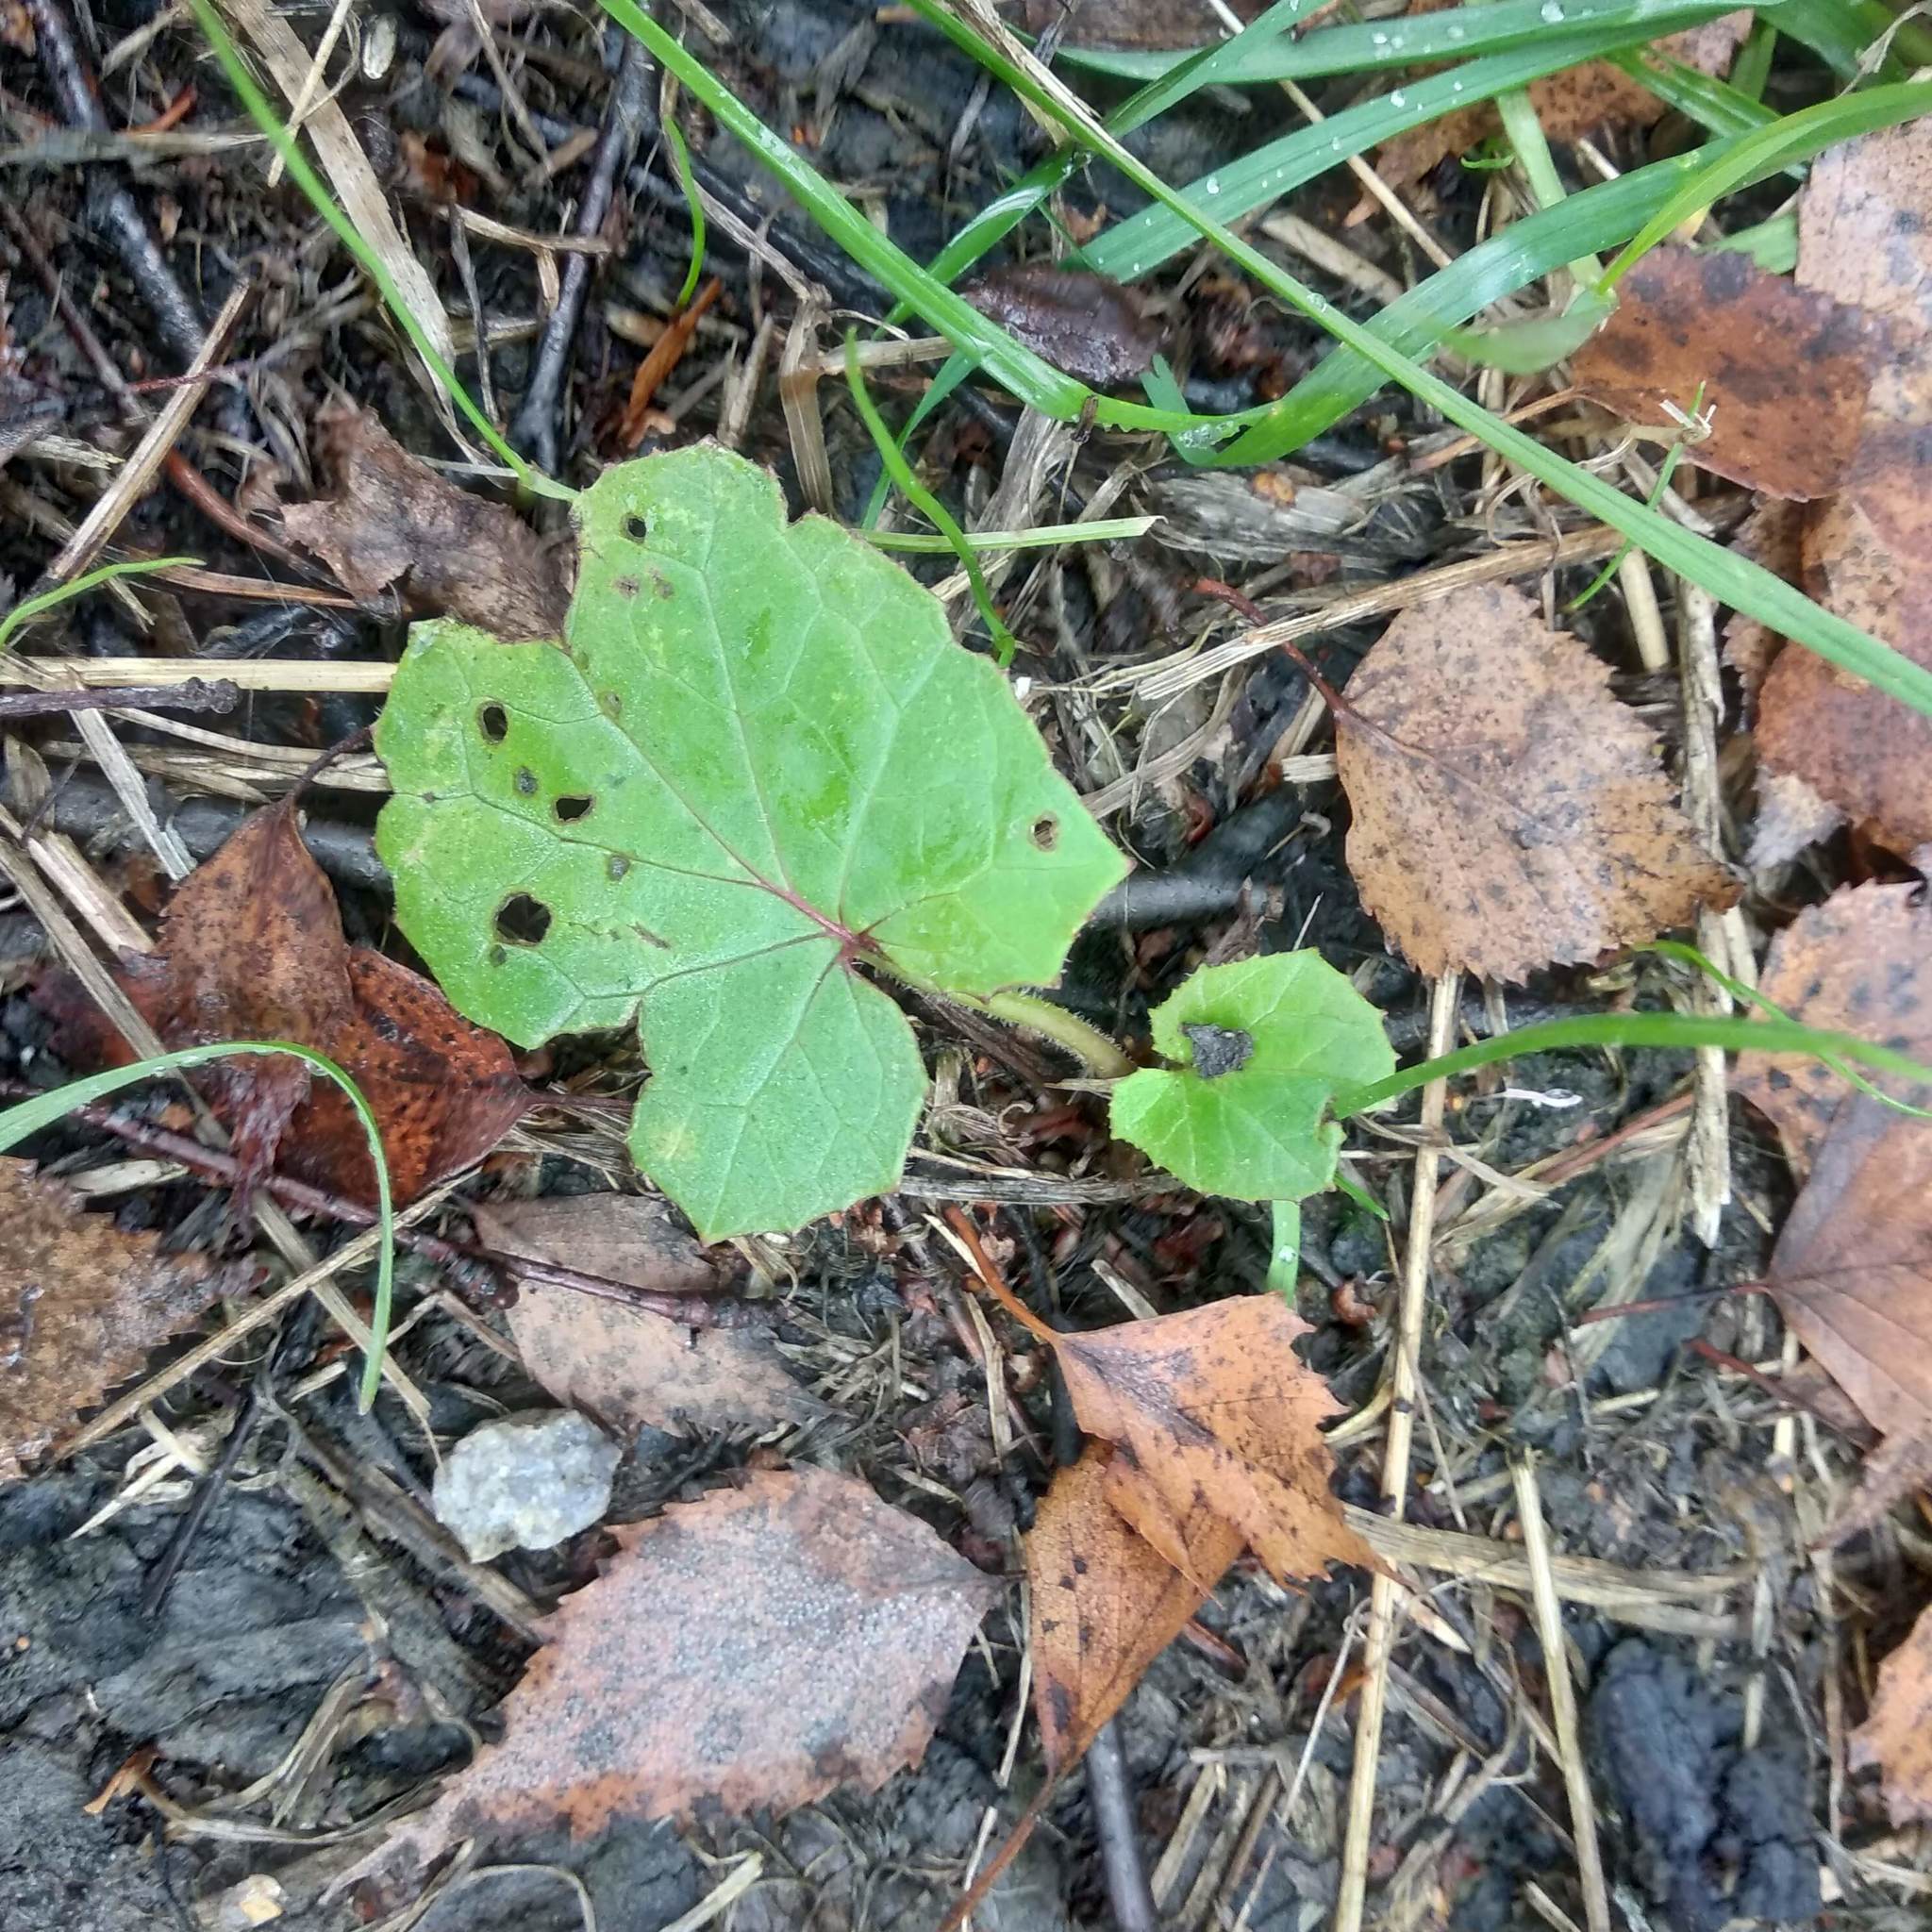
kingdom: Plantae
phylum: Tracheophyta
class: Magnoliopsida
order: Asterales
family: Asteraceae
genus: Tussilago
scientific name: Tussilago farfara
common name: Coltsfoot
